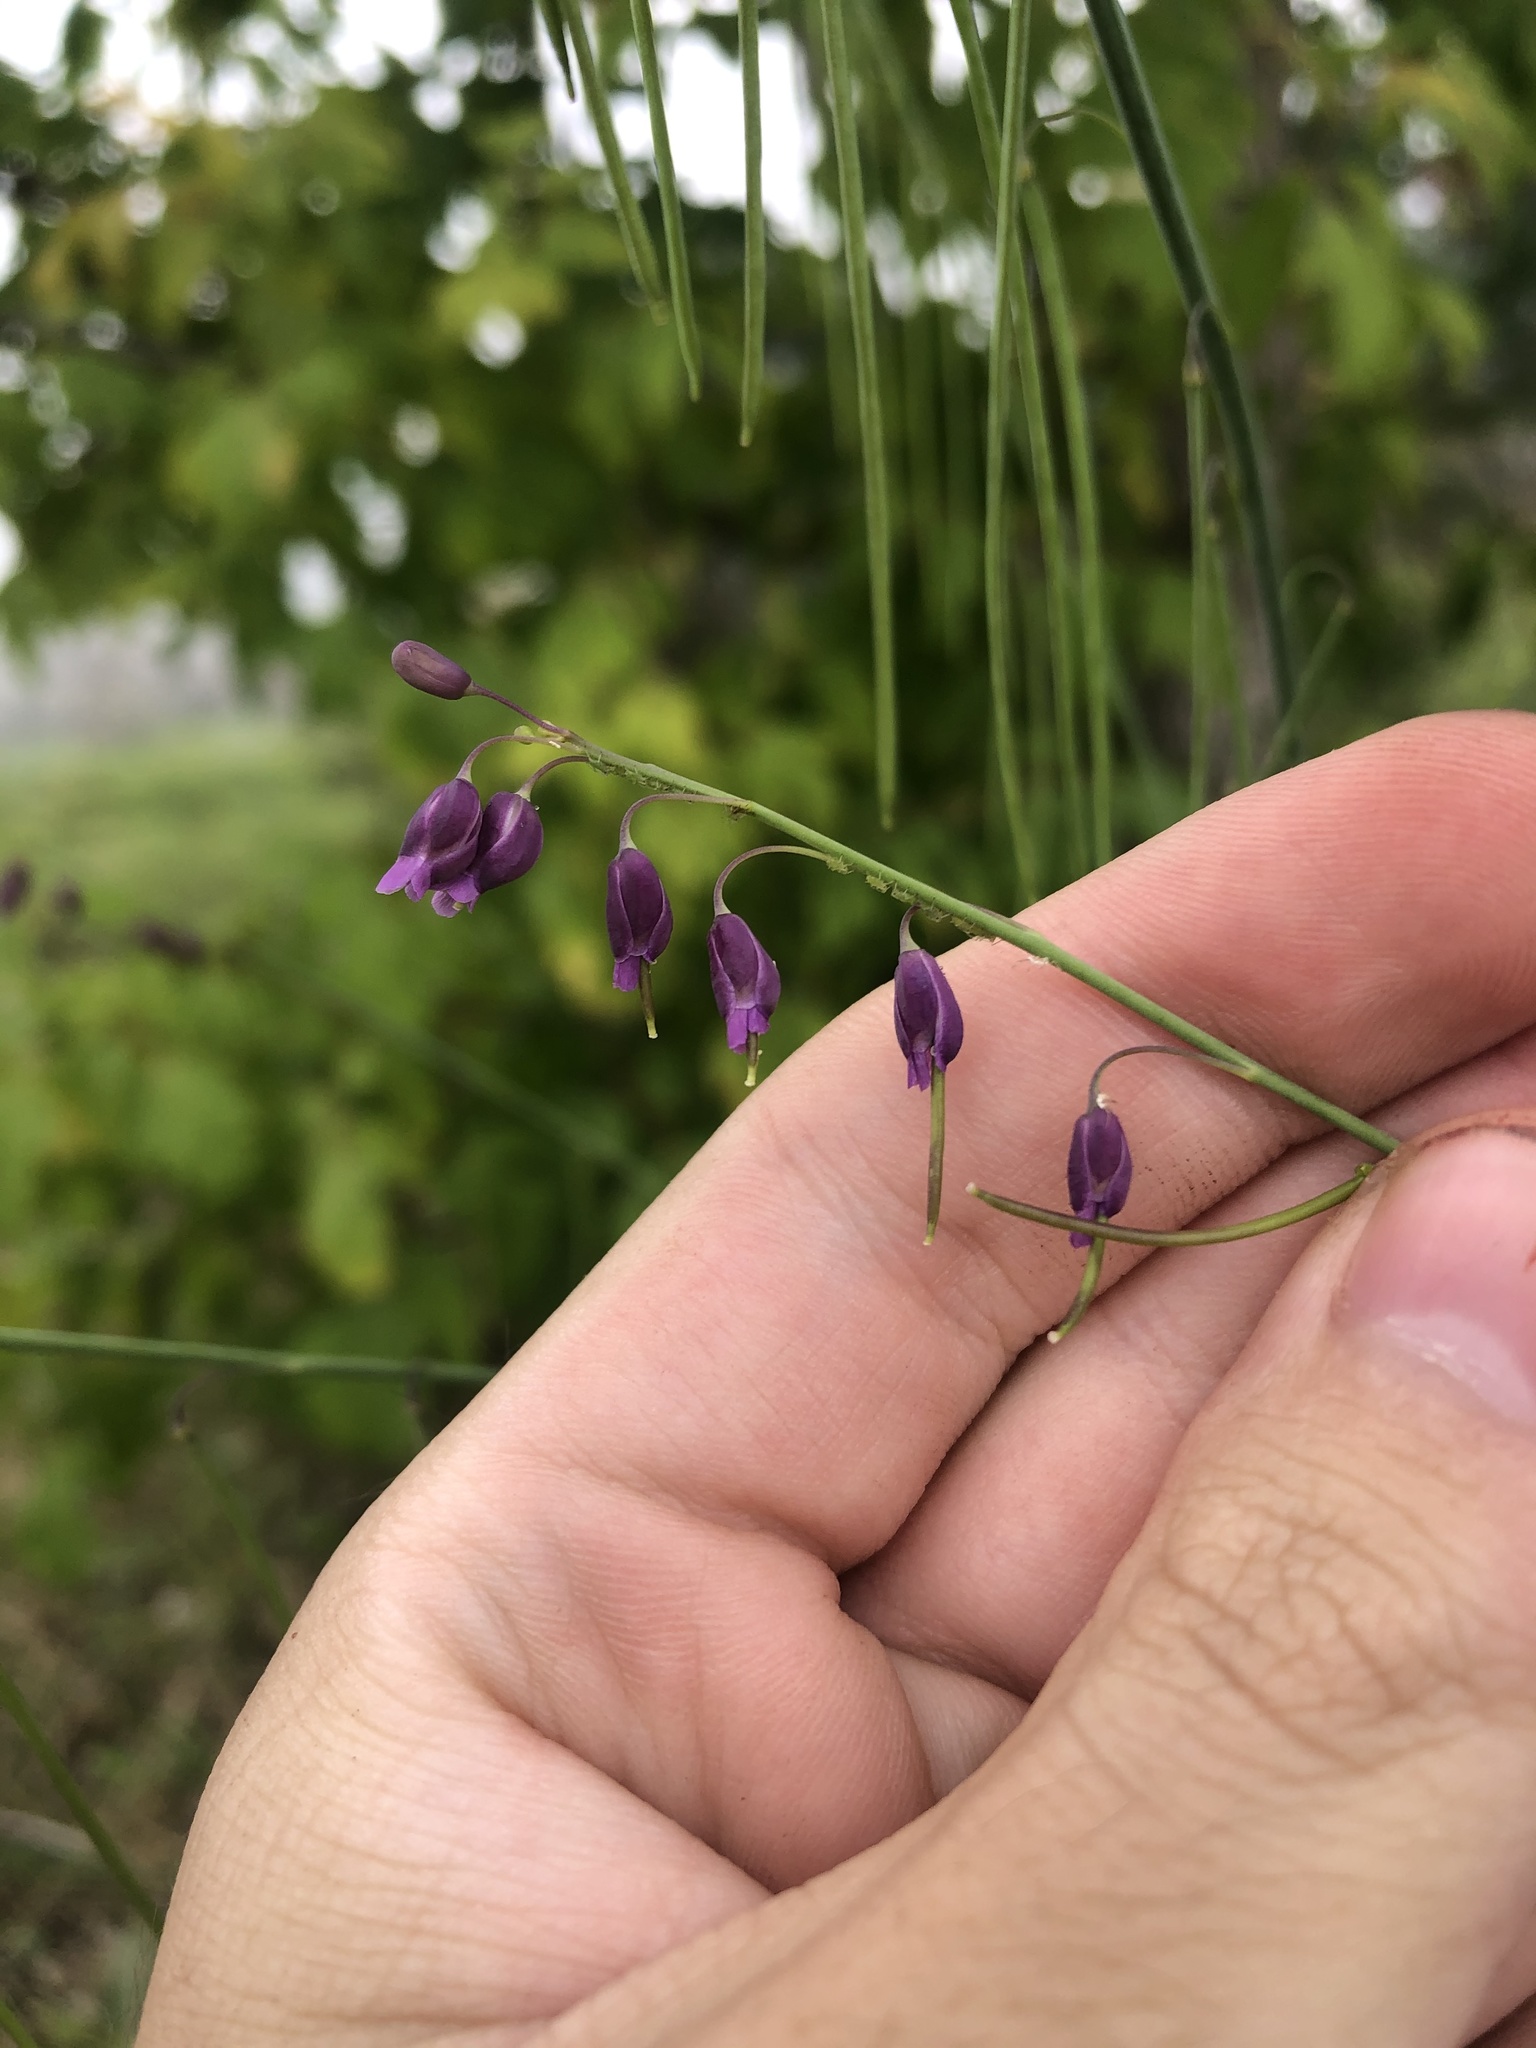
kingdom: Plantae
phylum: Tracheophyta
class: Magnoliopsida
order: Brassicales
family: Brassicaceae
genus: Pennellia
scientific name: Pennellia longifolia
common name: Longleaf mock thelypody
